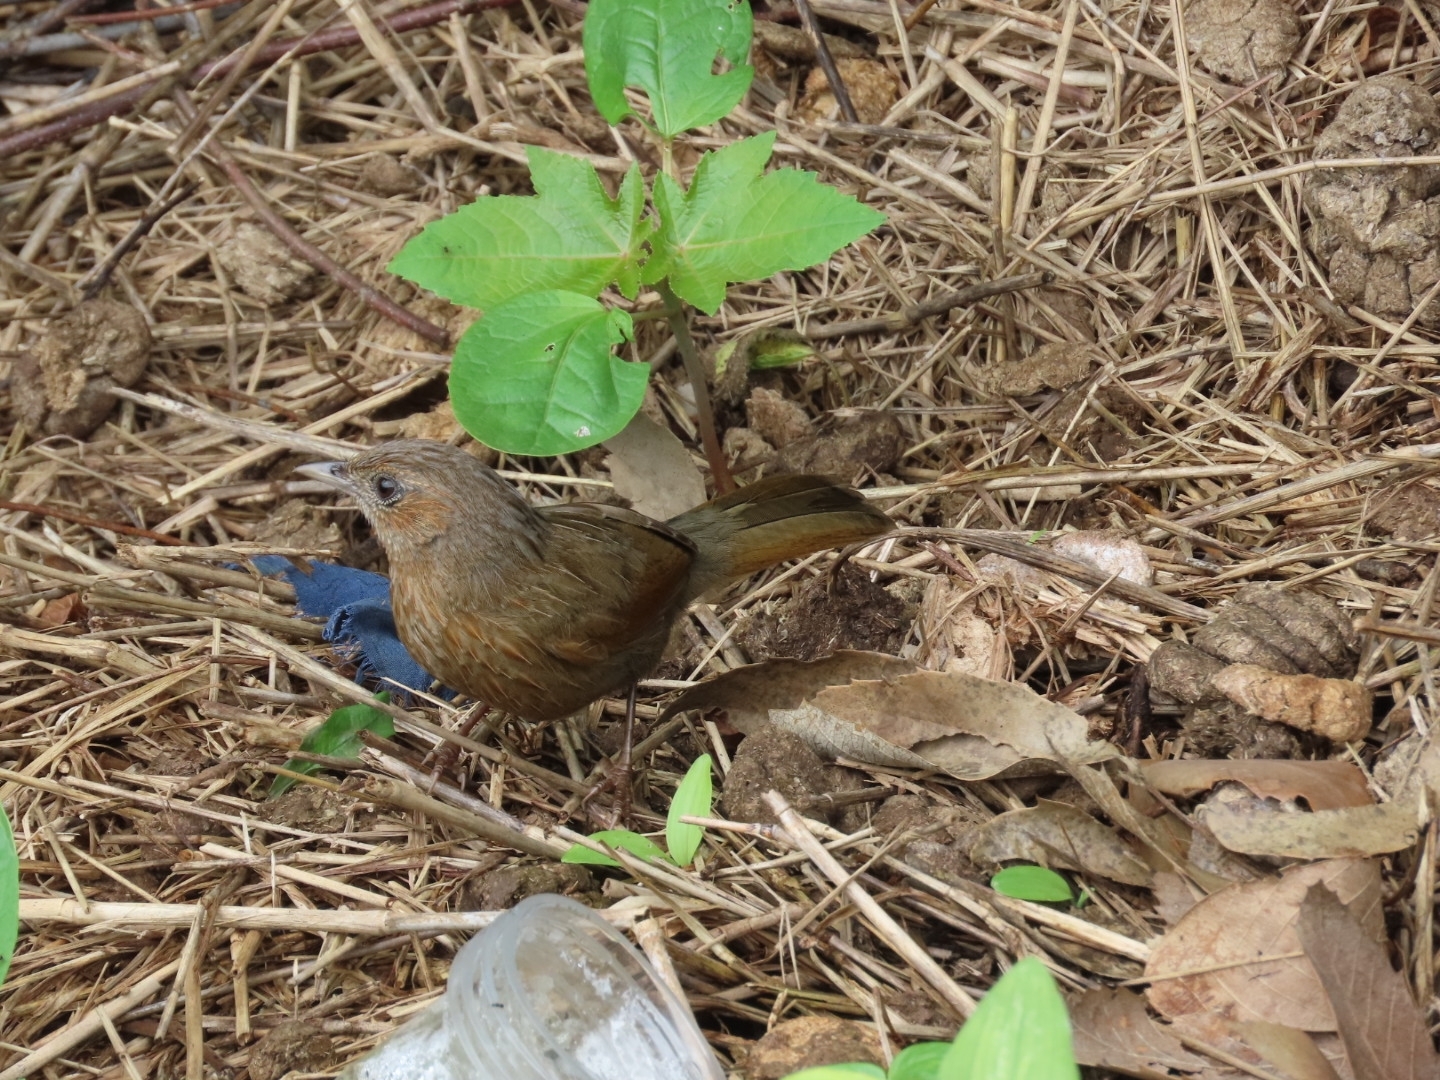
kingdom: Animalia
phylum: Chordata
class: Aves
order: Passeriformes
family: Leiothrichidae
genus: Trochalopteron
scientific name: Trochalopteron lineatum
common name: Streaked laughingthrush
